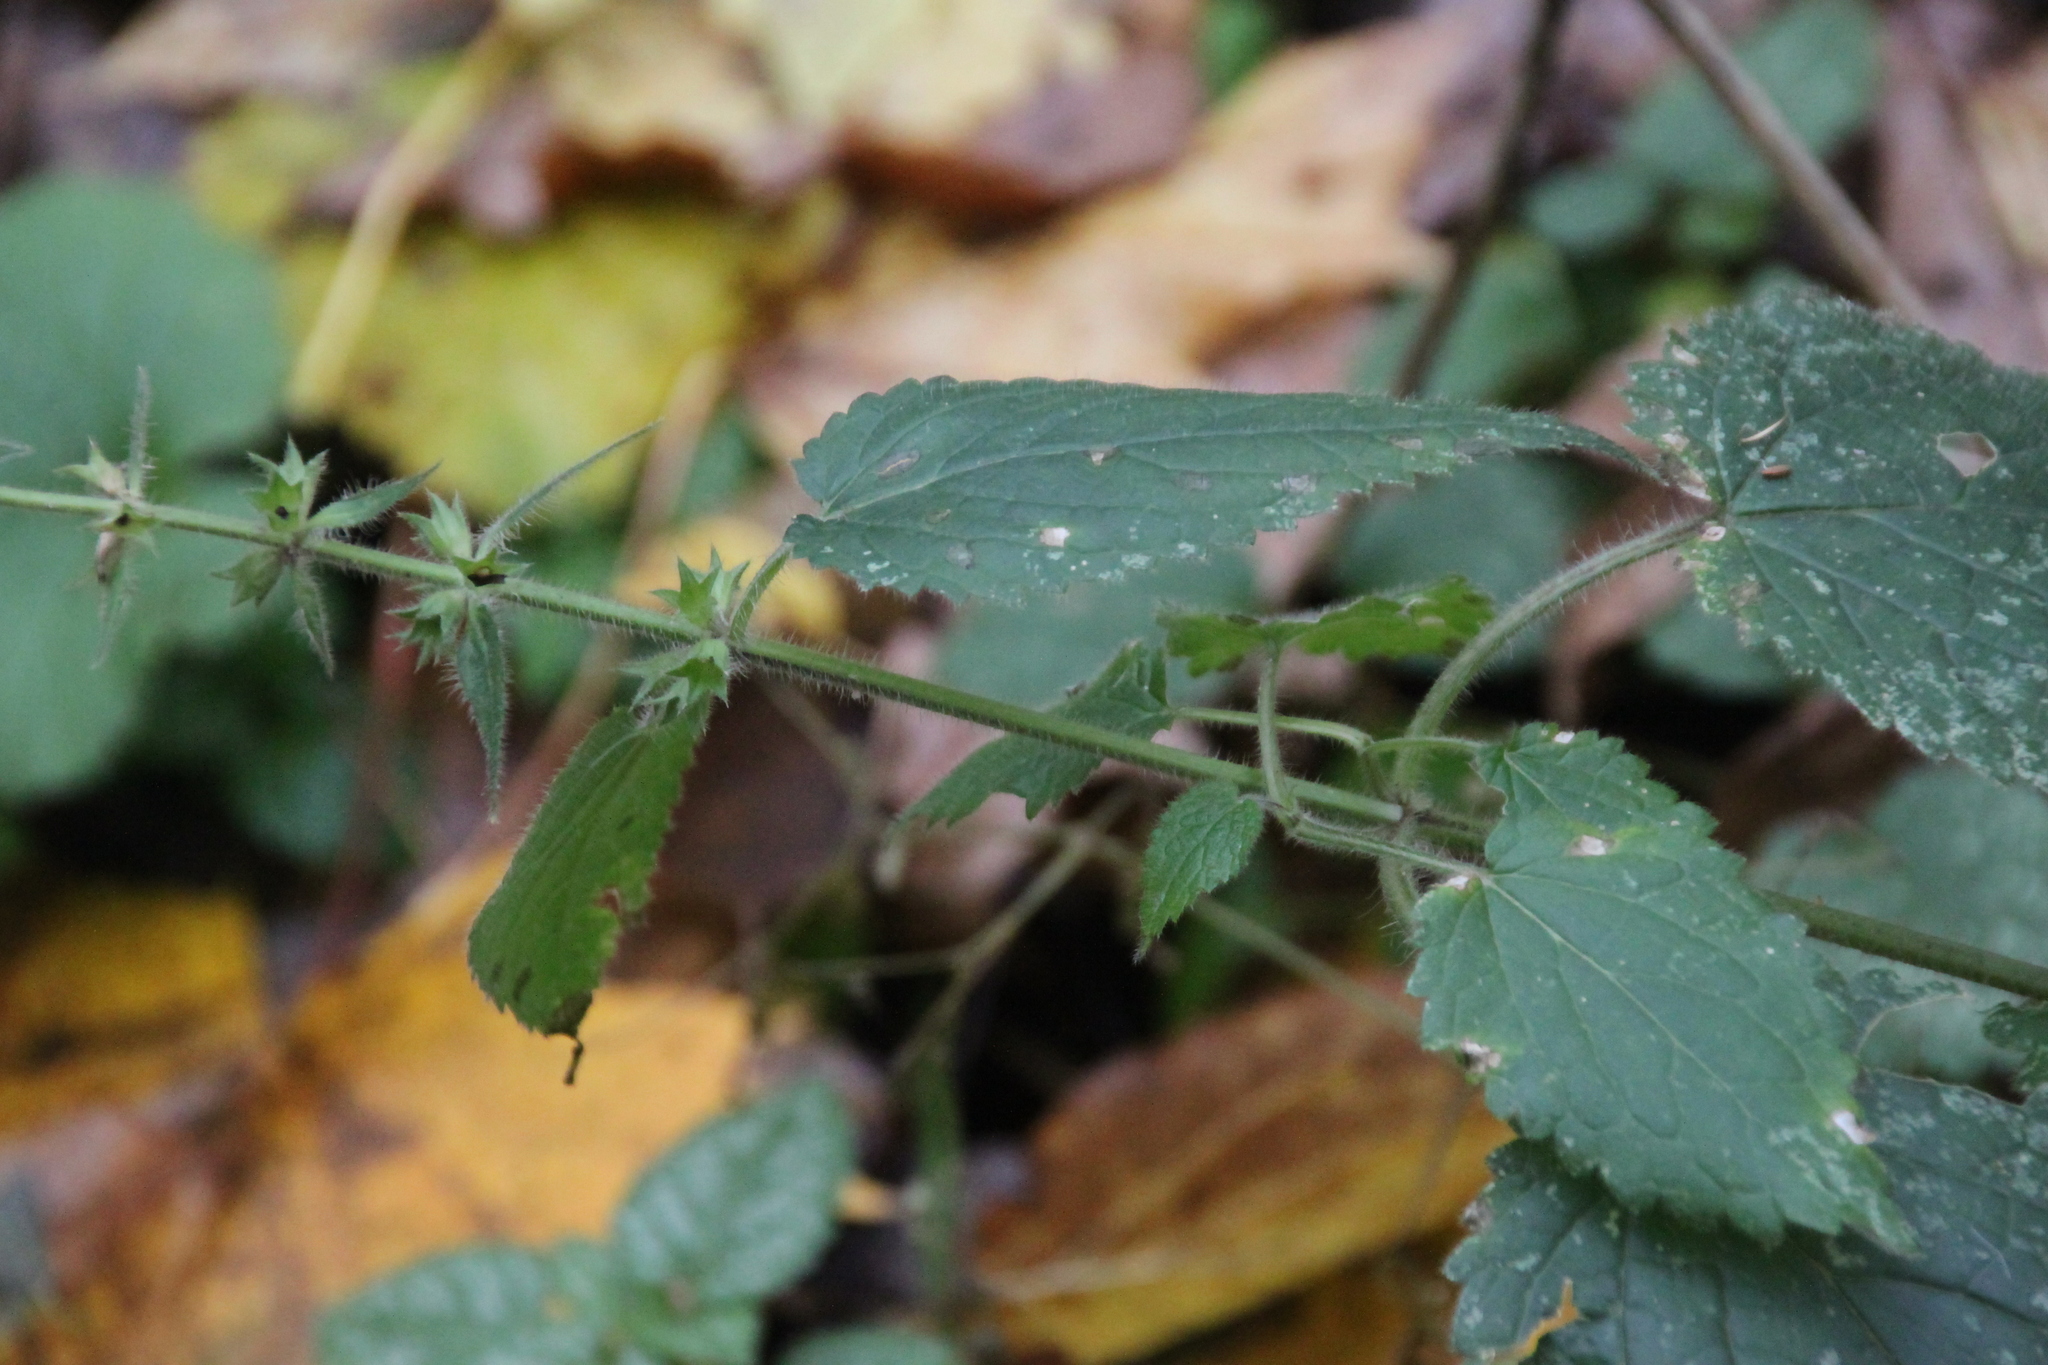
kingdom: Plantae
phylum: Tracheophyta
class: Magnoliopsida
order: Lamiales
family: Lamiaceae
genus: Stachys
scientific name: Stachys sylvatica
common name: Hedge woundwort
